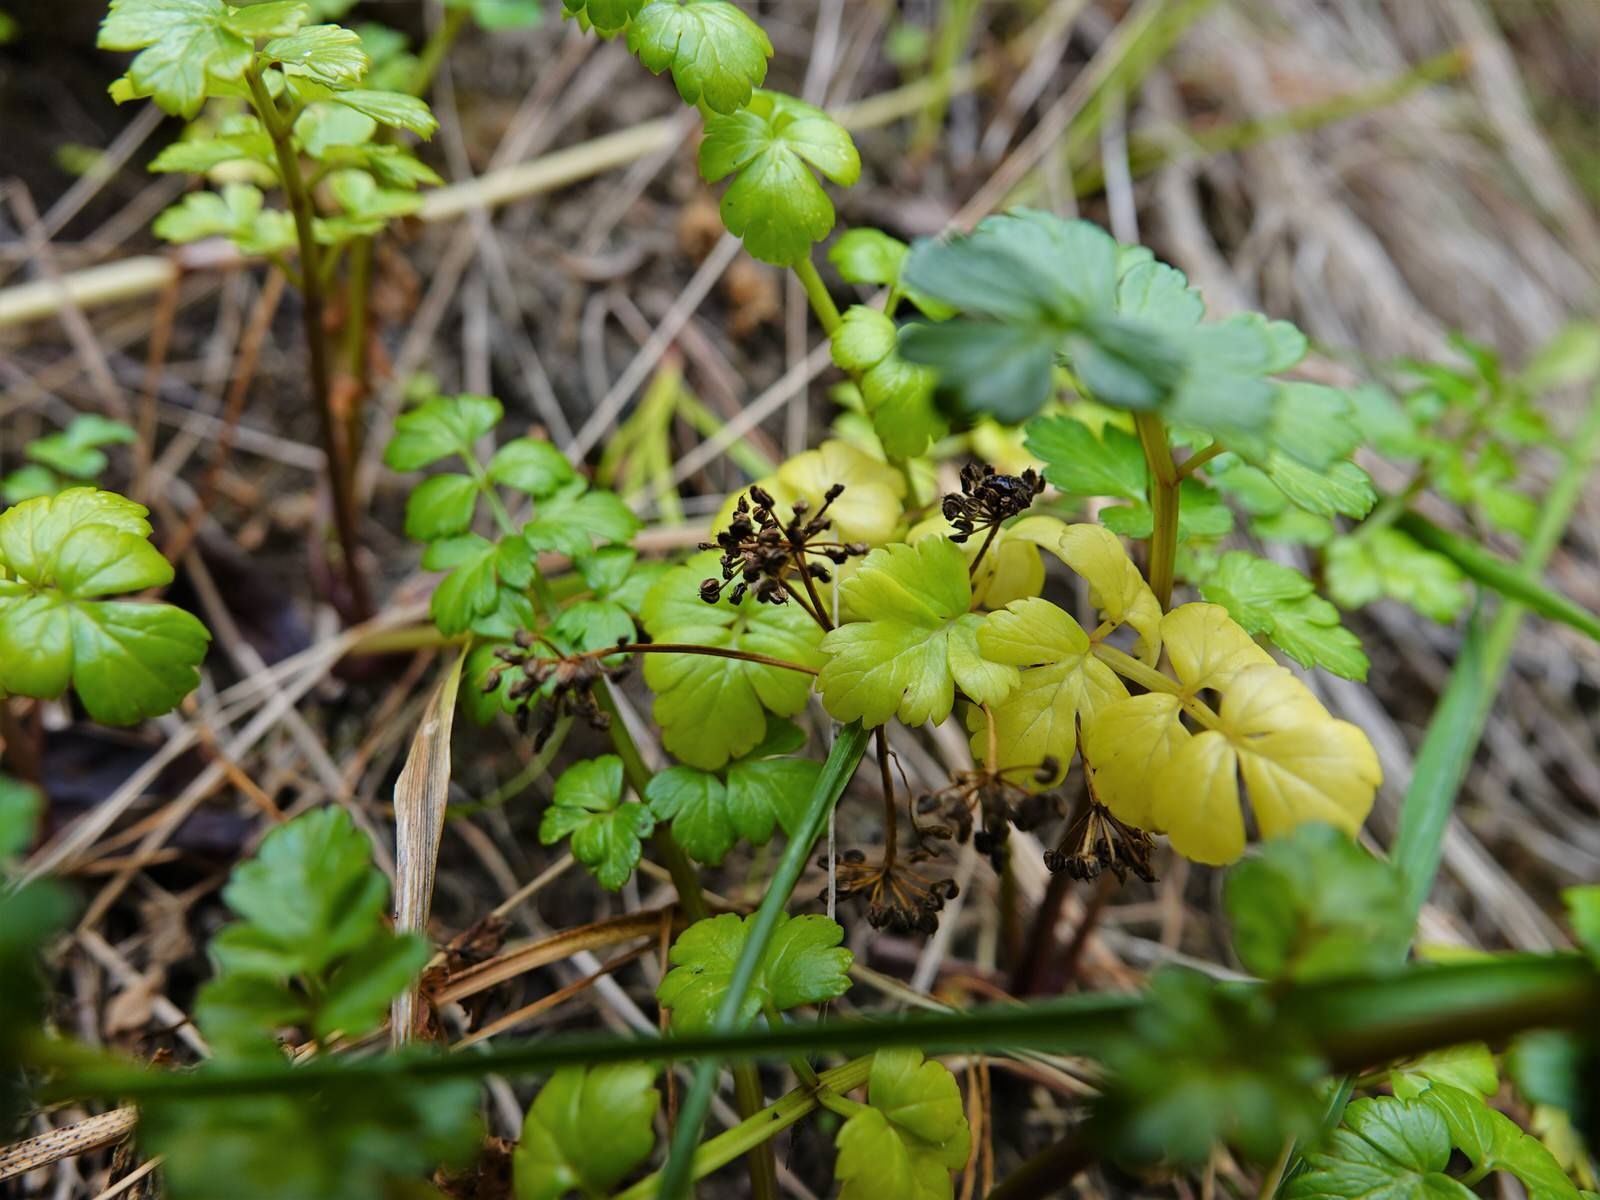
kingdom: Plantae
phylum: Tracheophyta
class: Magnoliopsida
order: Apiales
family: Apiaceae
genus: Apium
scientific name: Apium prostratum
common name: Prostrate marshwort
